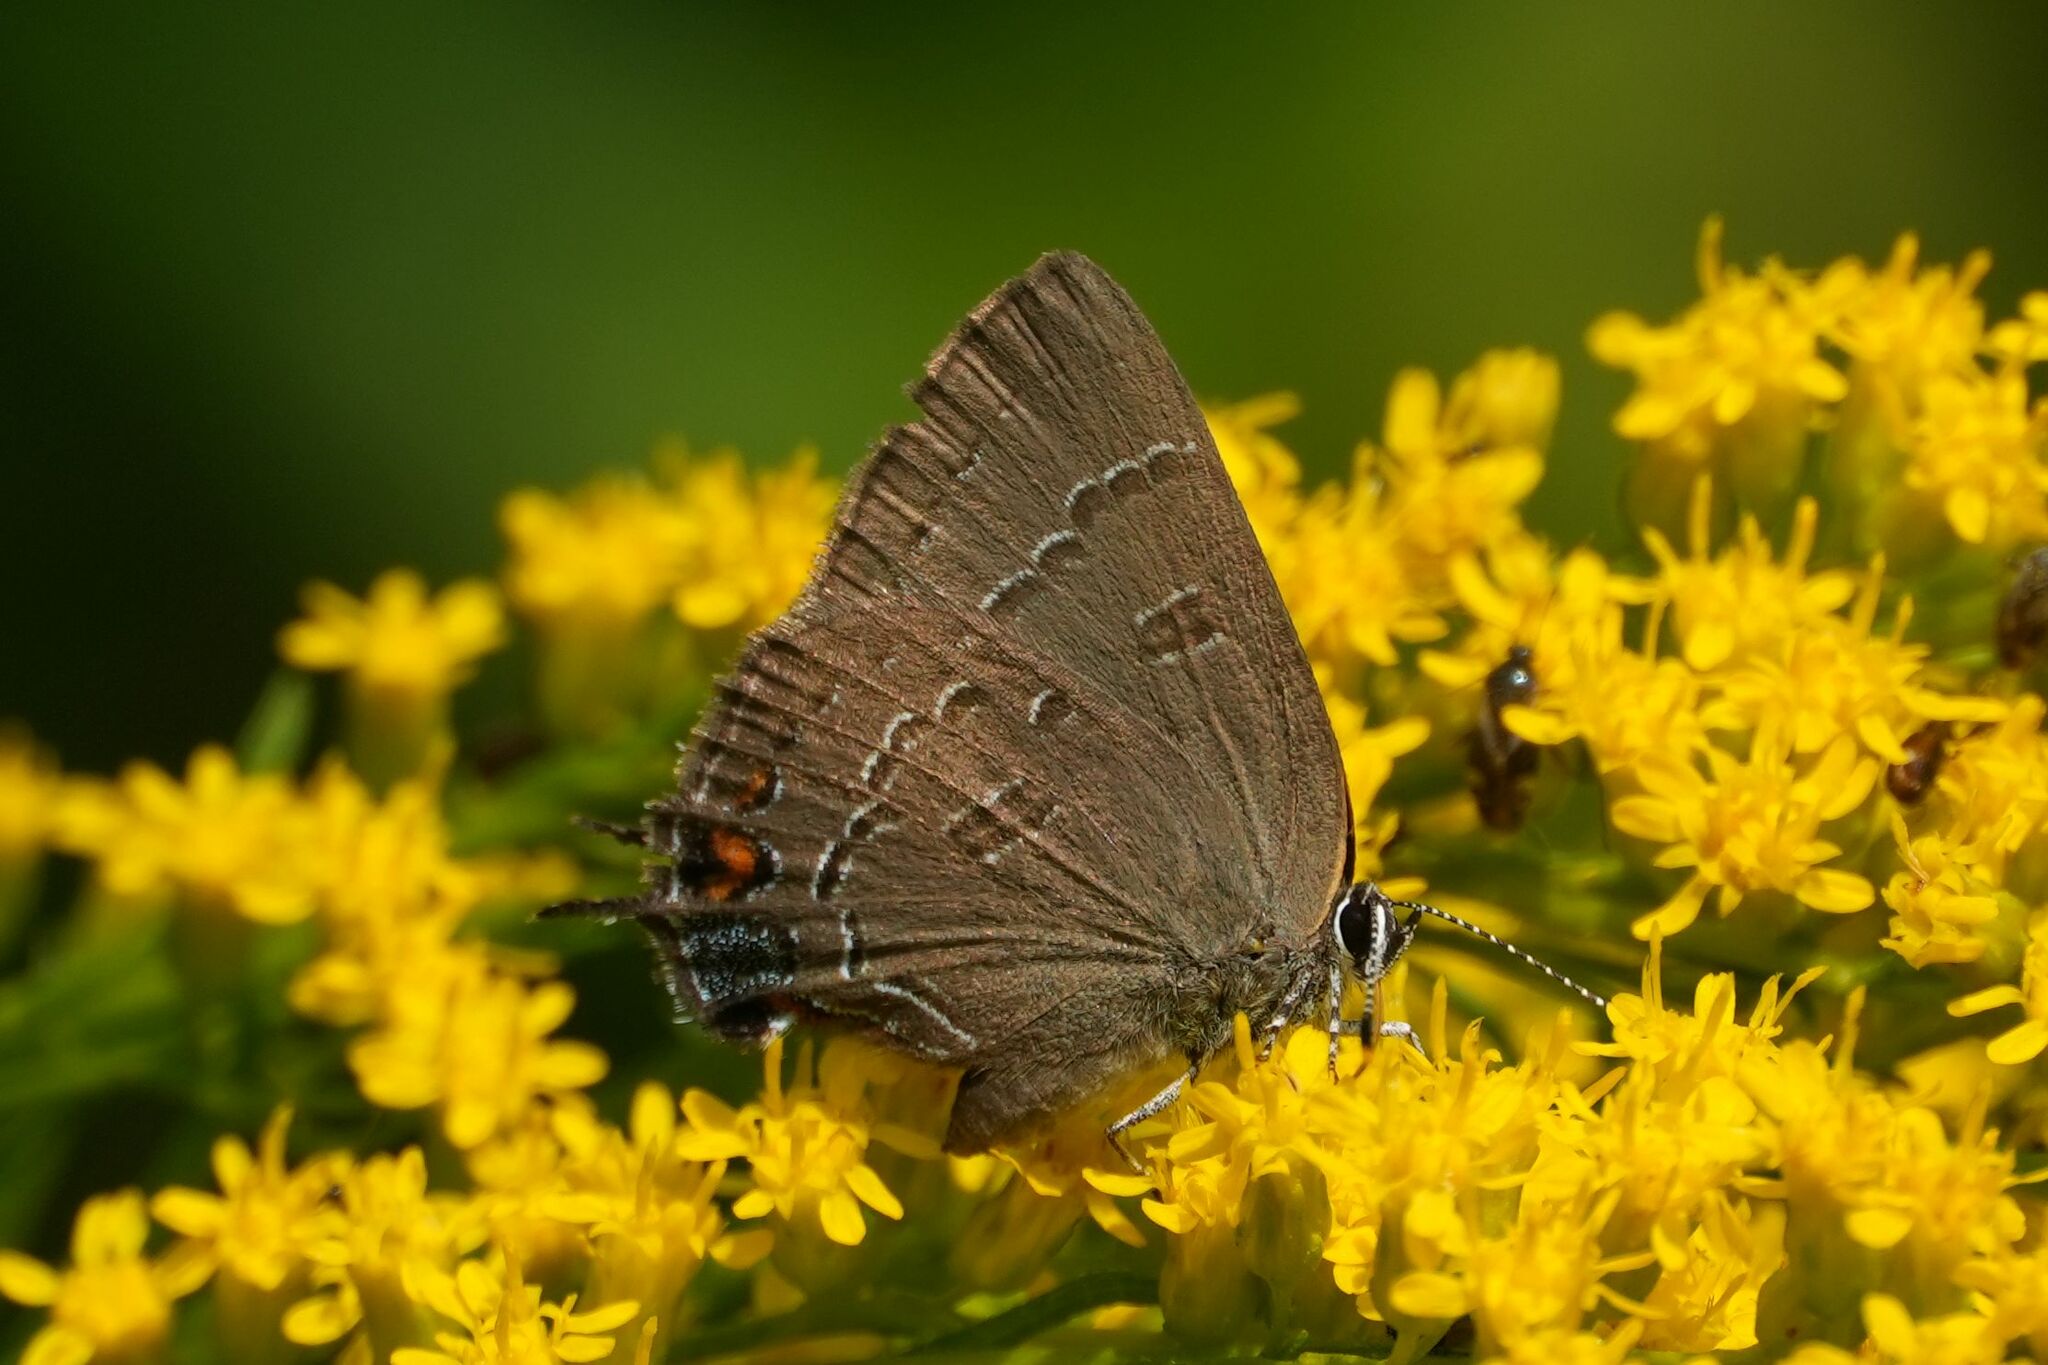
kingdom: Animalia
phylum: Arthropoda
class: Insecta
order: Lepidoptera
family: Lycaenidae
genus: Satyrium
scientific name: Satyrium calanus
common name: Banded hairstreak
